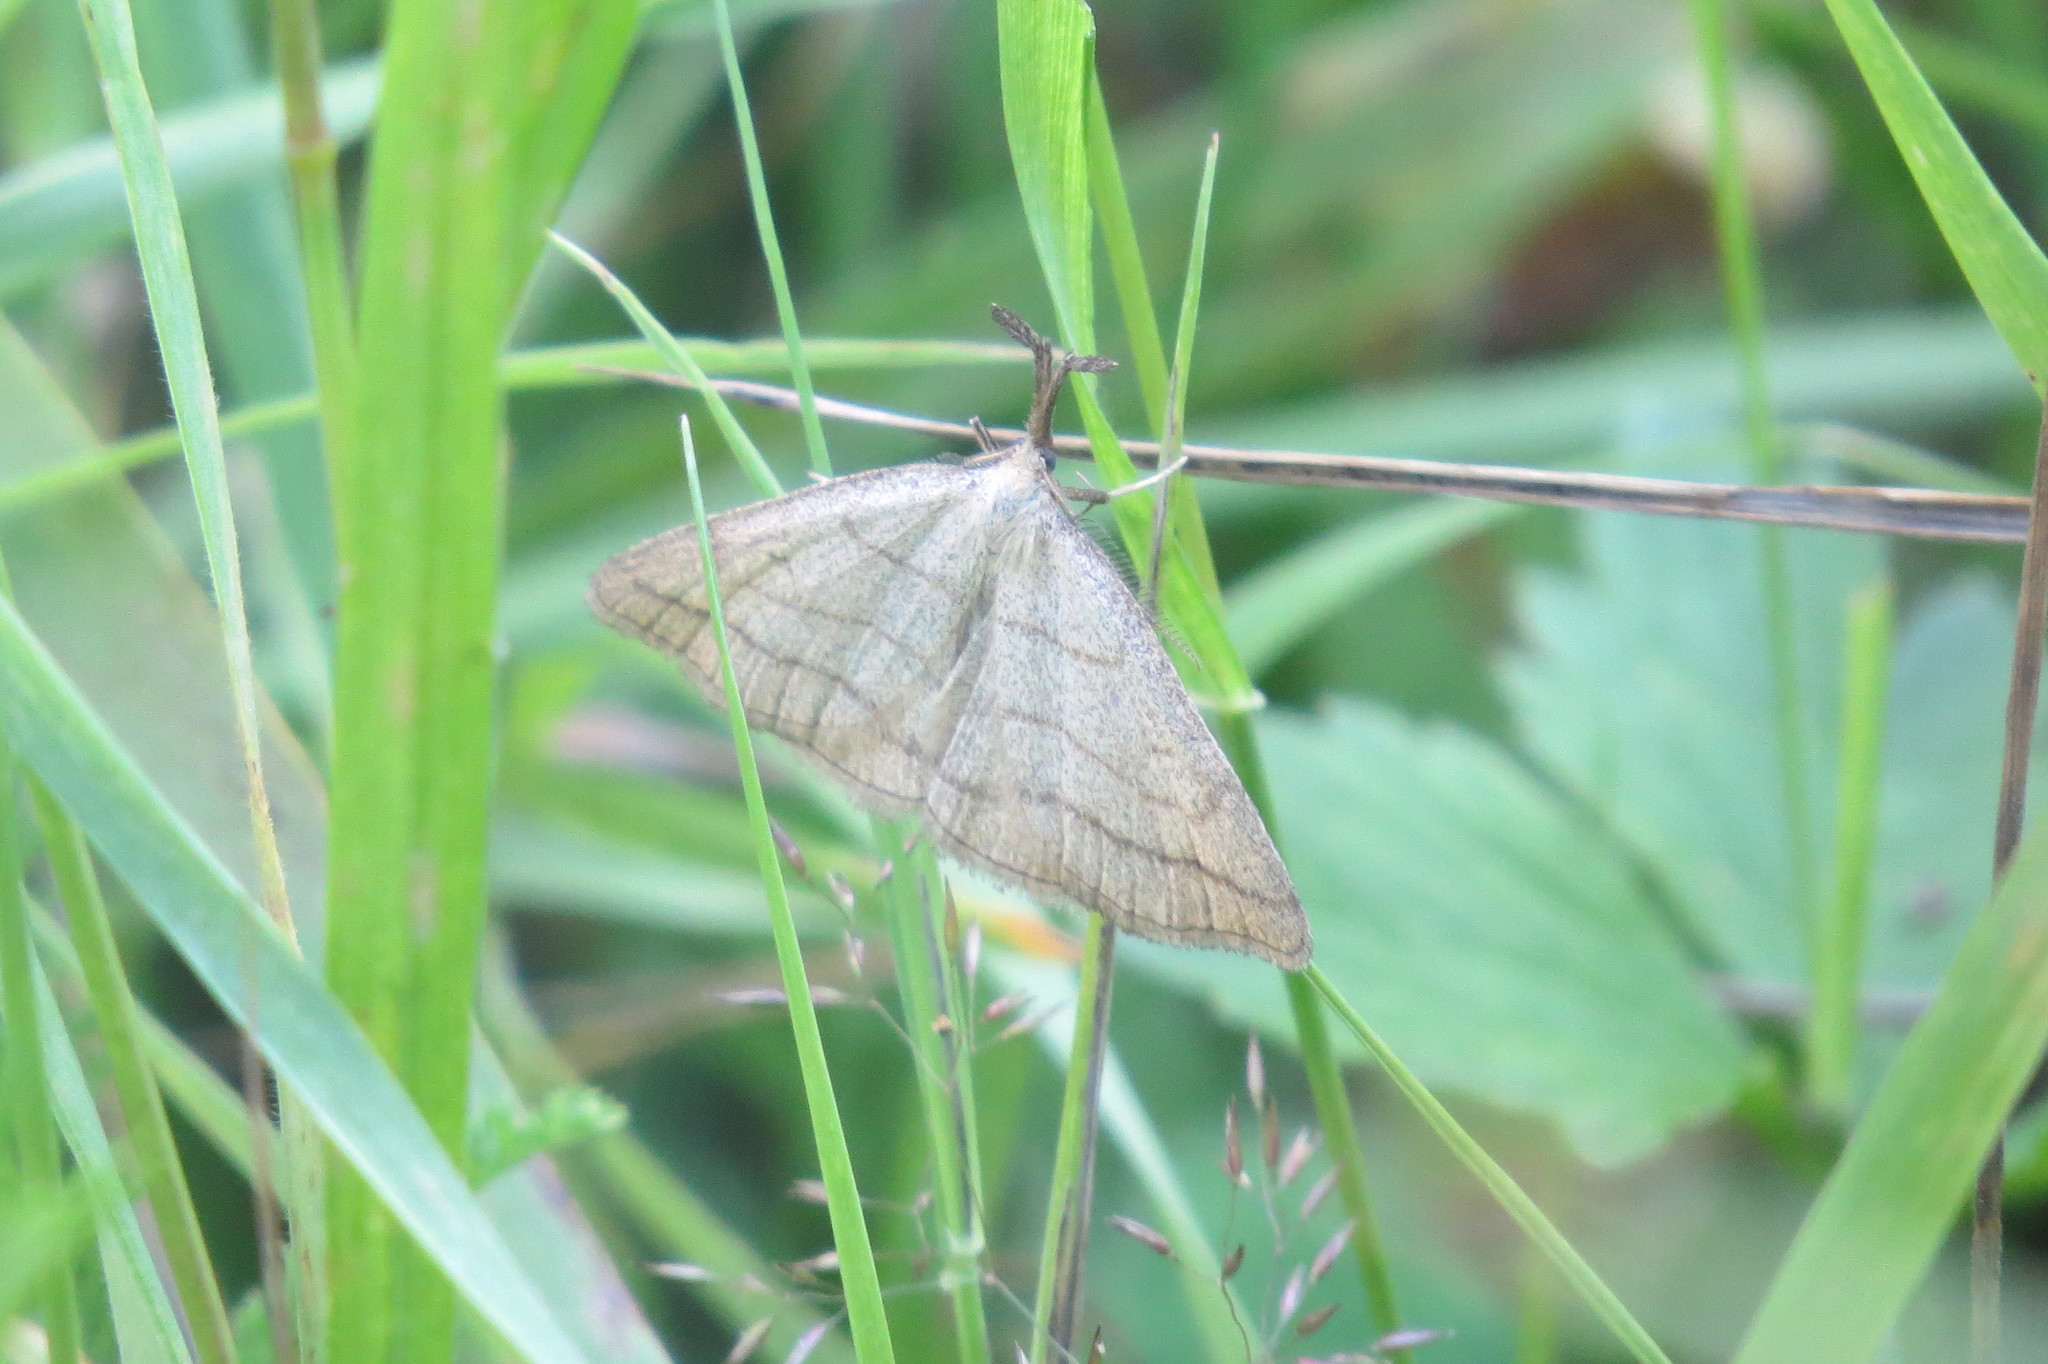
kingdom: Animalia
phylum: Arthropoda
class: Insecta
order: Lepidoptera
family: Erebidae
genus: Polypogon
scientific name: Polypogon tentacularia
